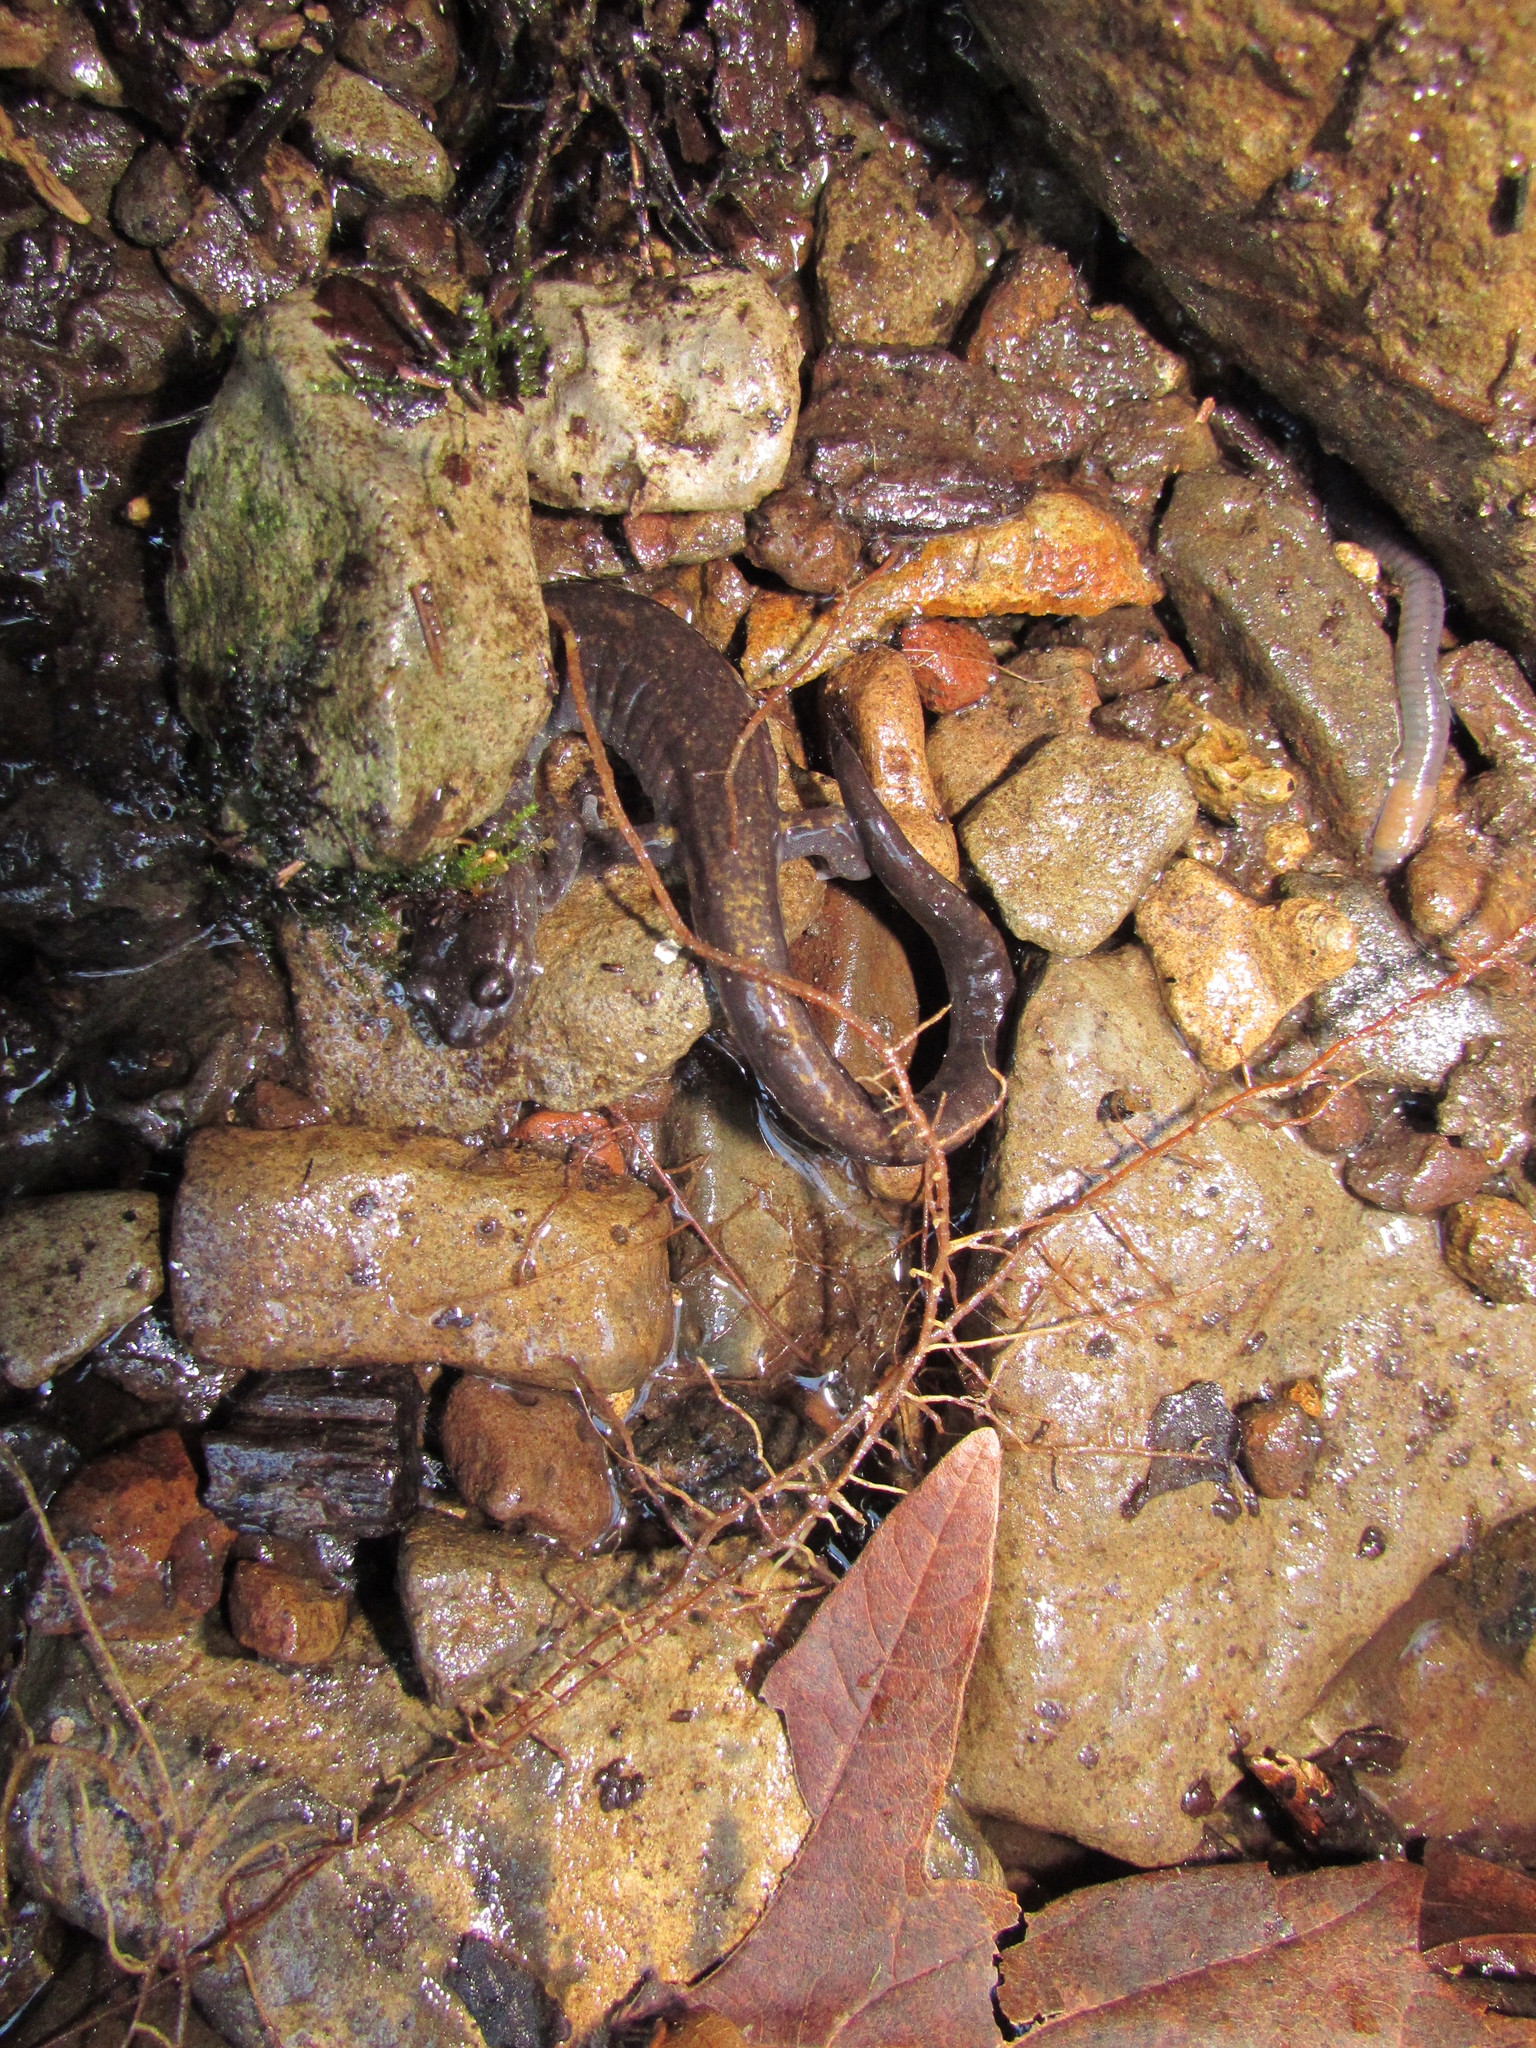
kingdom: Animalia
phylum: Chordata
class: Amphibia
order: Caudata
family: Plethodontidae
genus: Plethodon
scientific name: Plethodon dunni
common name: Dunn's salamander
